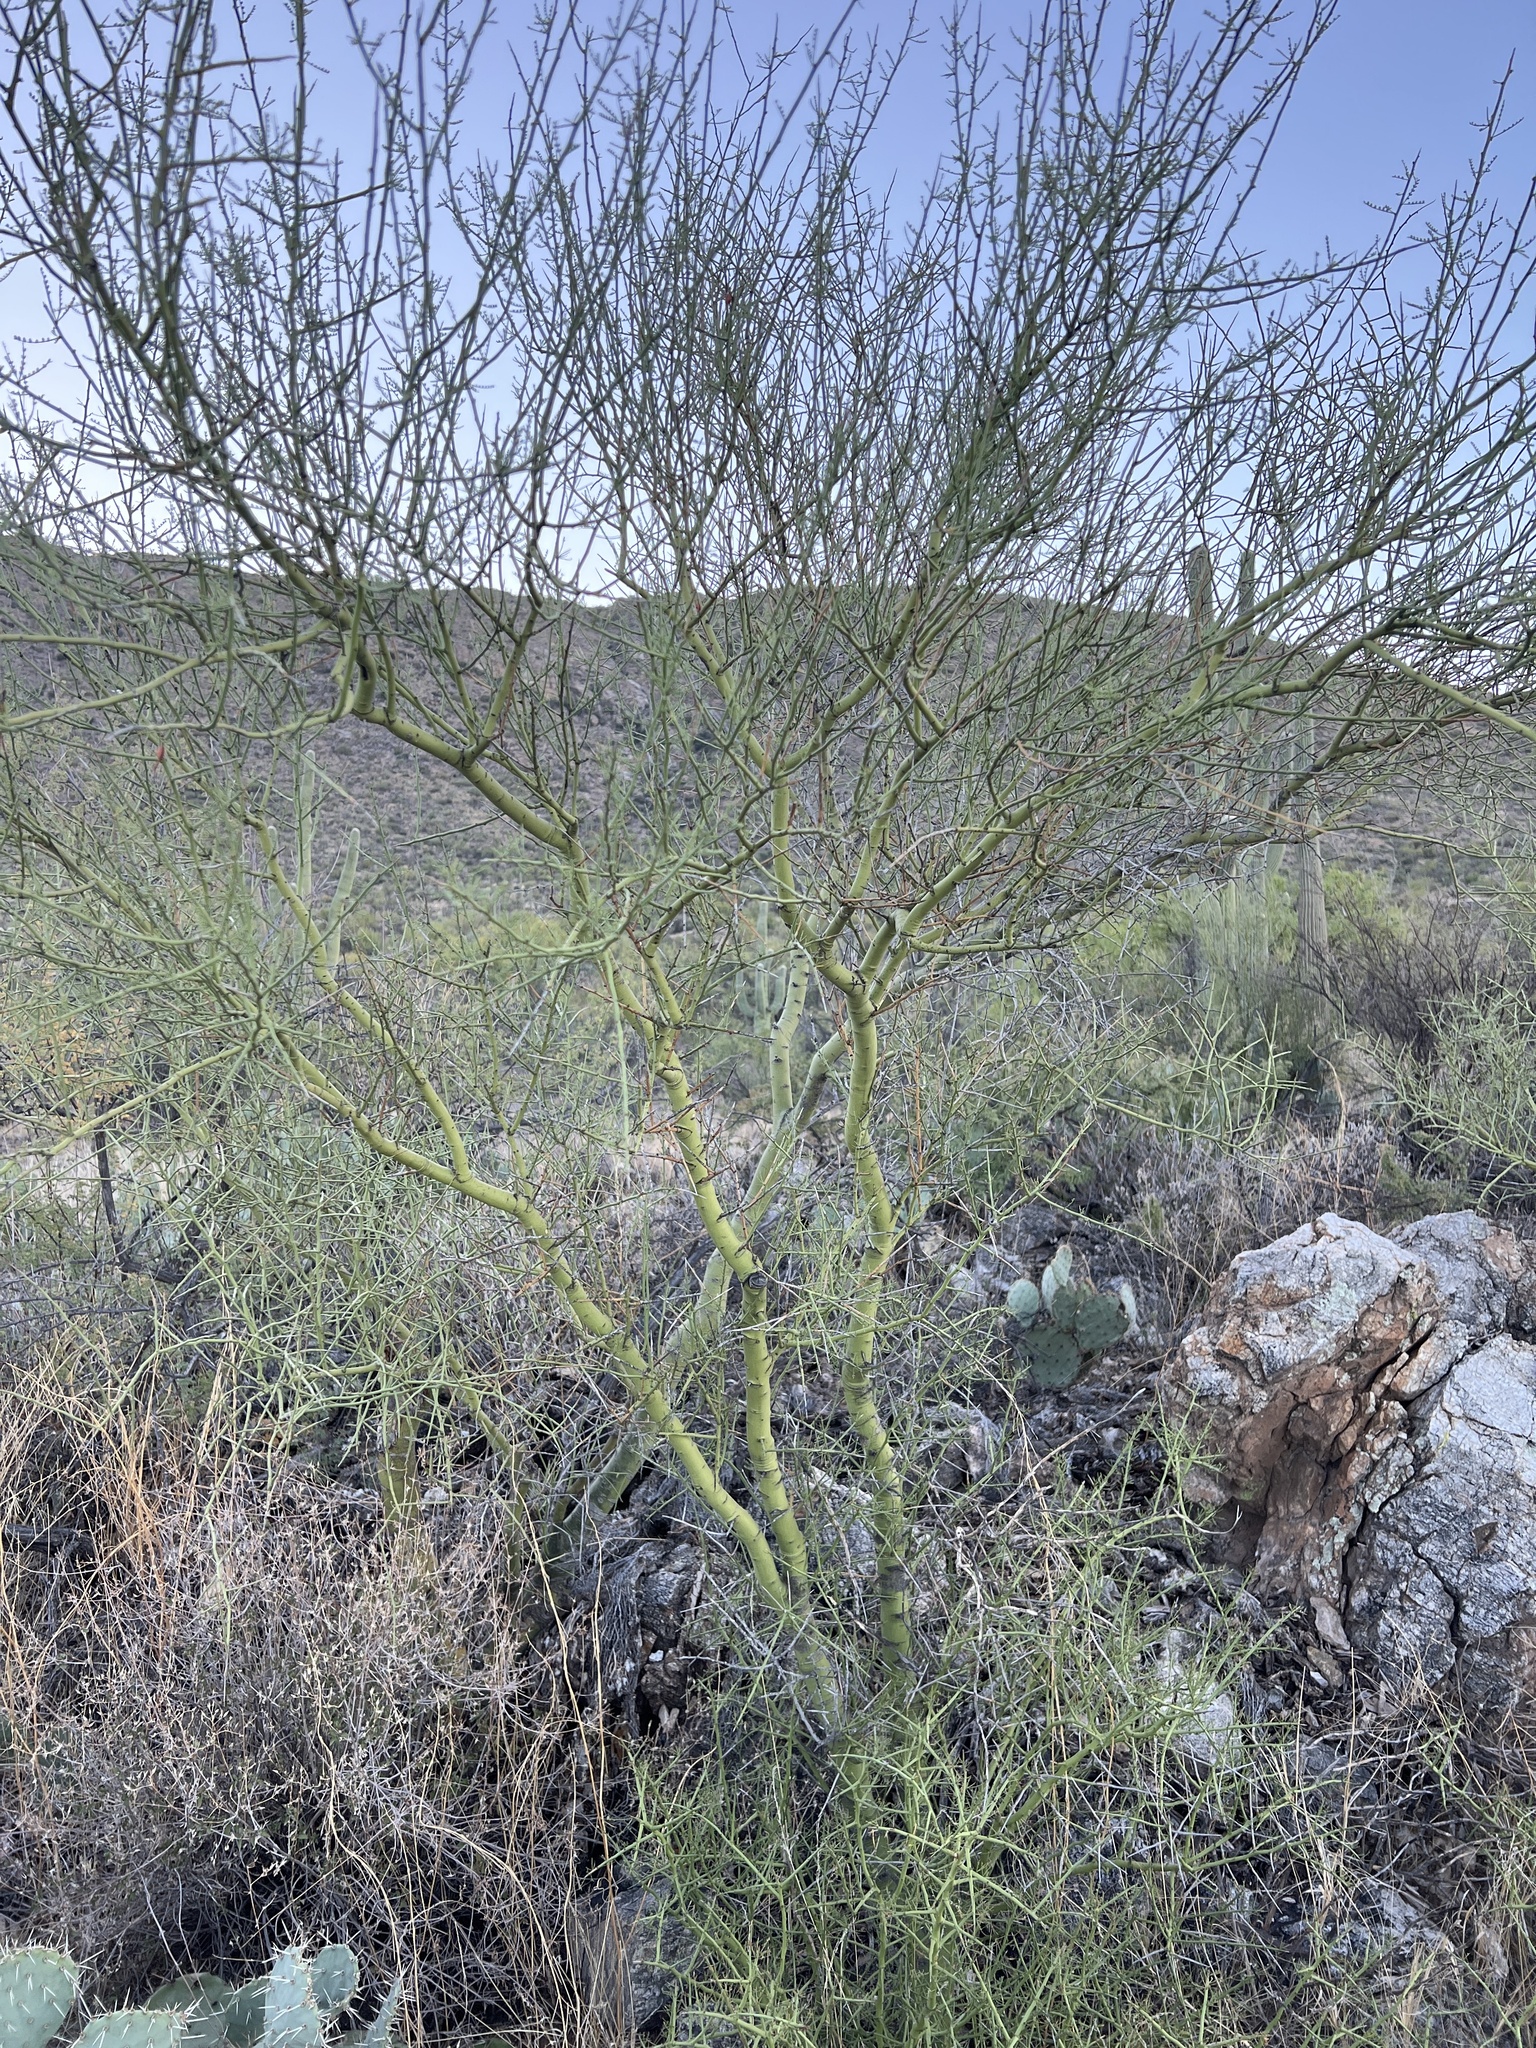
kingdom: Plantae
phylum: Tracheophyta
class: Magnoliopsida
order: Fabales
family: Fabaceae
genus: Parkinsonia
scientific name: Parkinsonia microphylla
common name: Yellow paloverde
